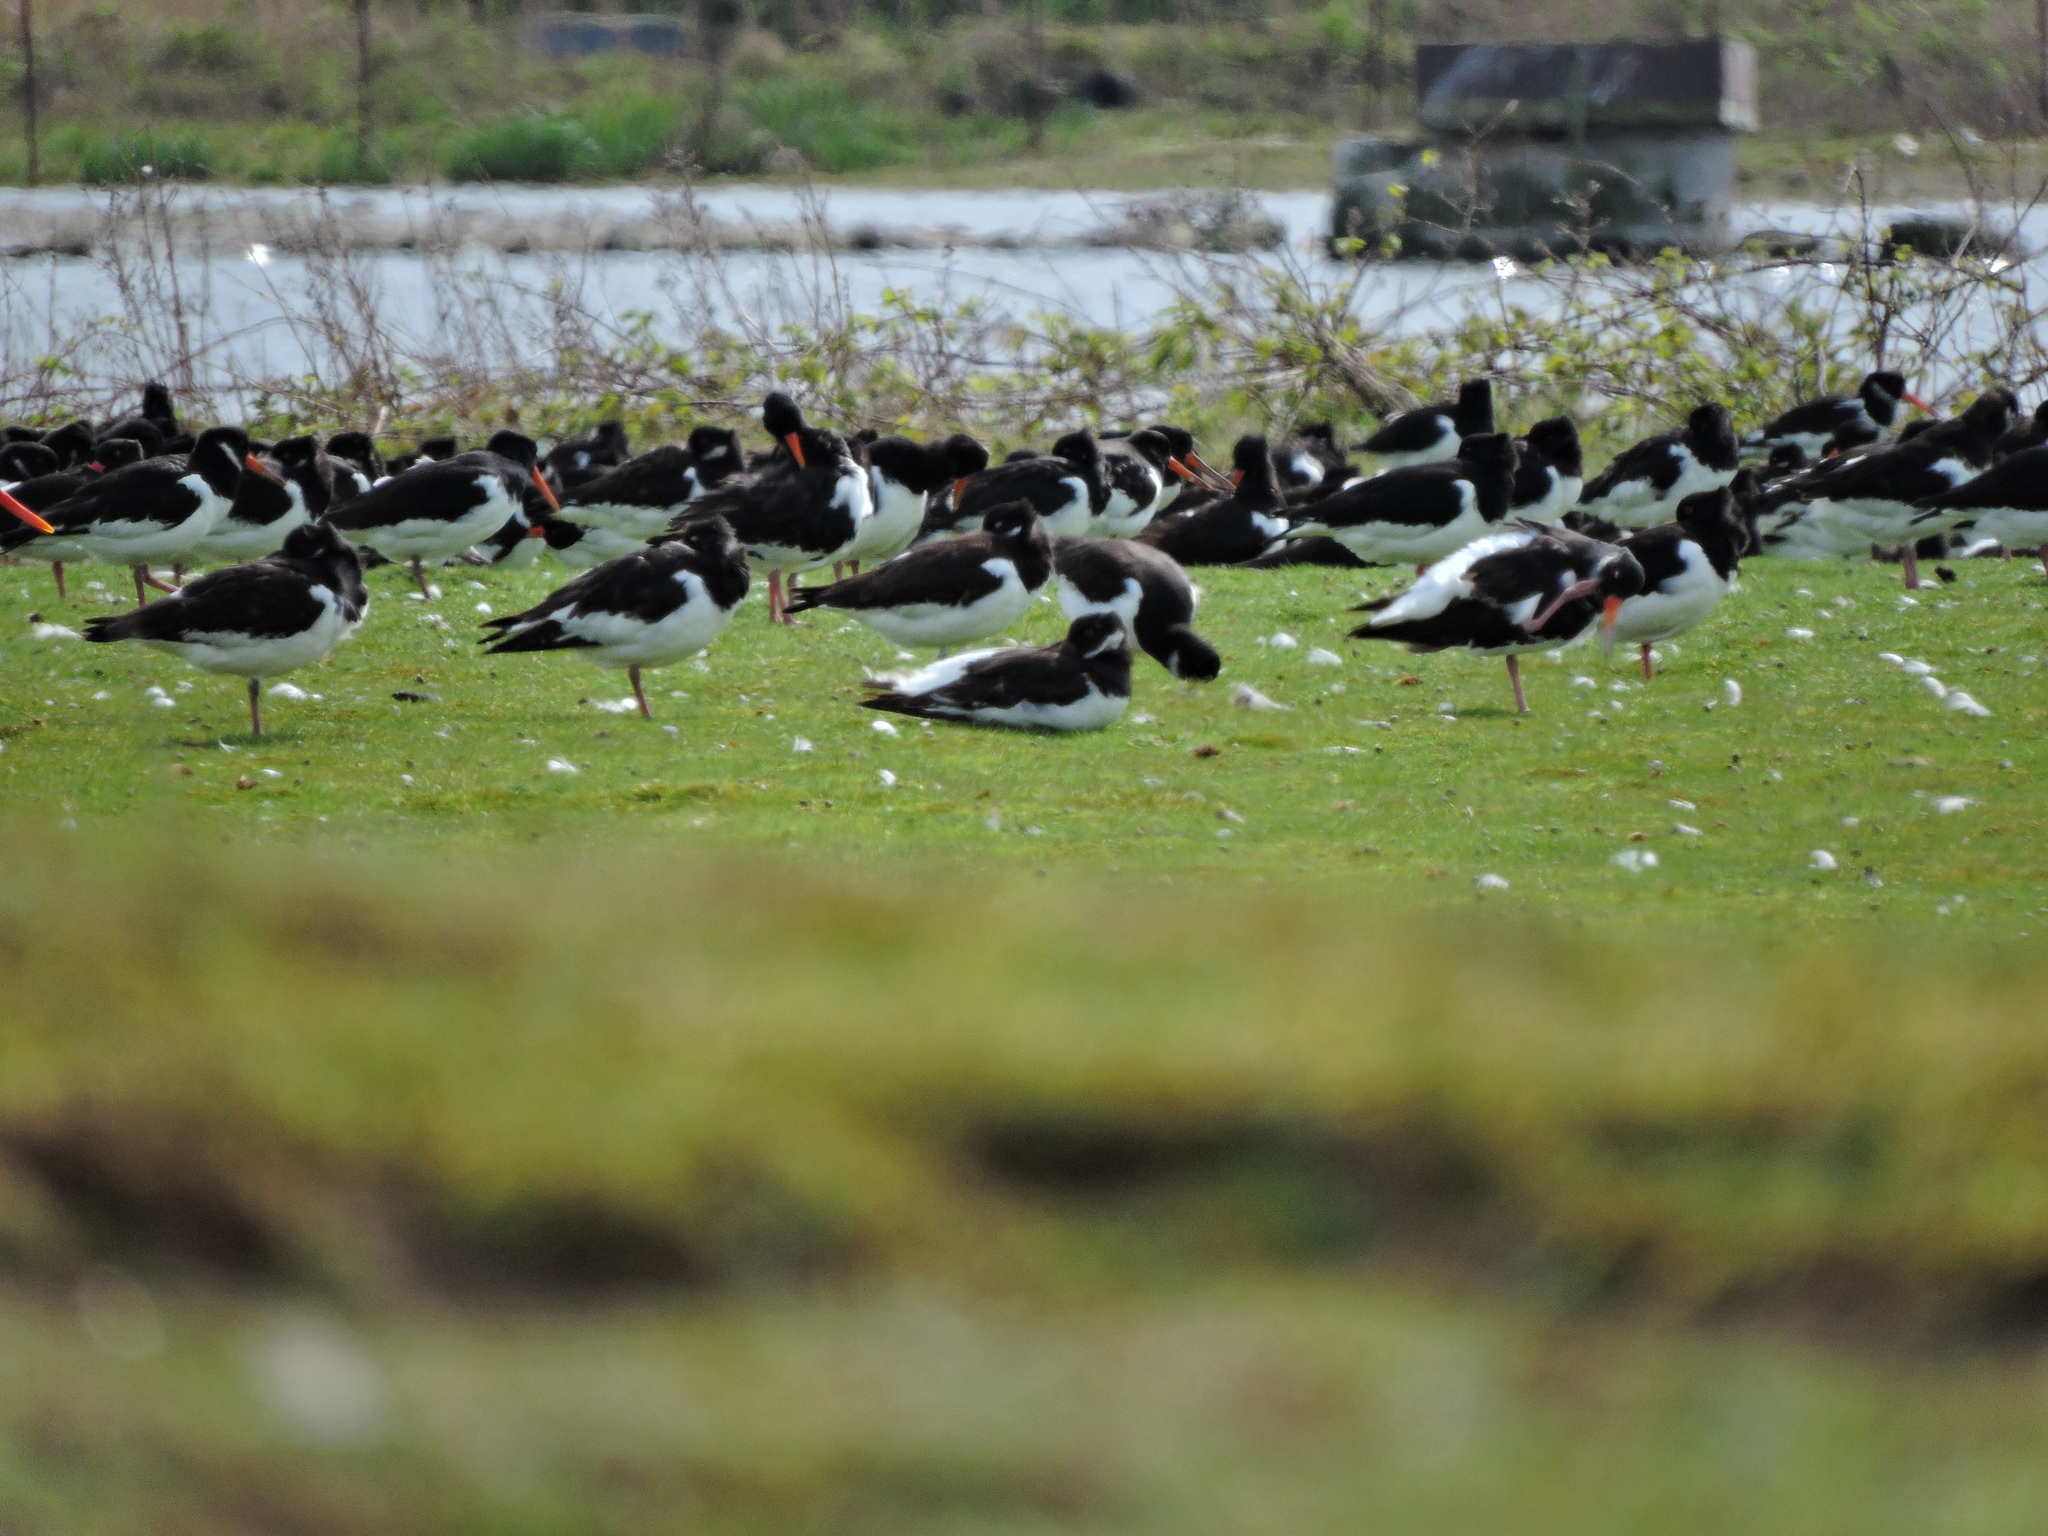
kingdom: Animalia
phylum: Chordata
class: Aves
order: Charadriiformes
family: Haematopodidae
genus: Haematopus
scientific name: Haematopus ostralegus
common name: Eurasian oystercatcher
